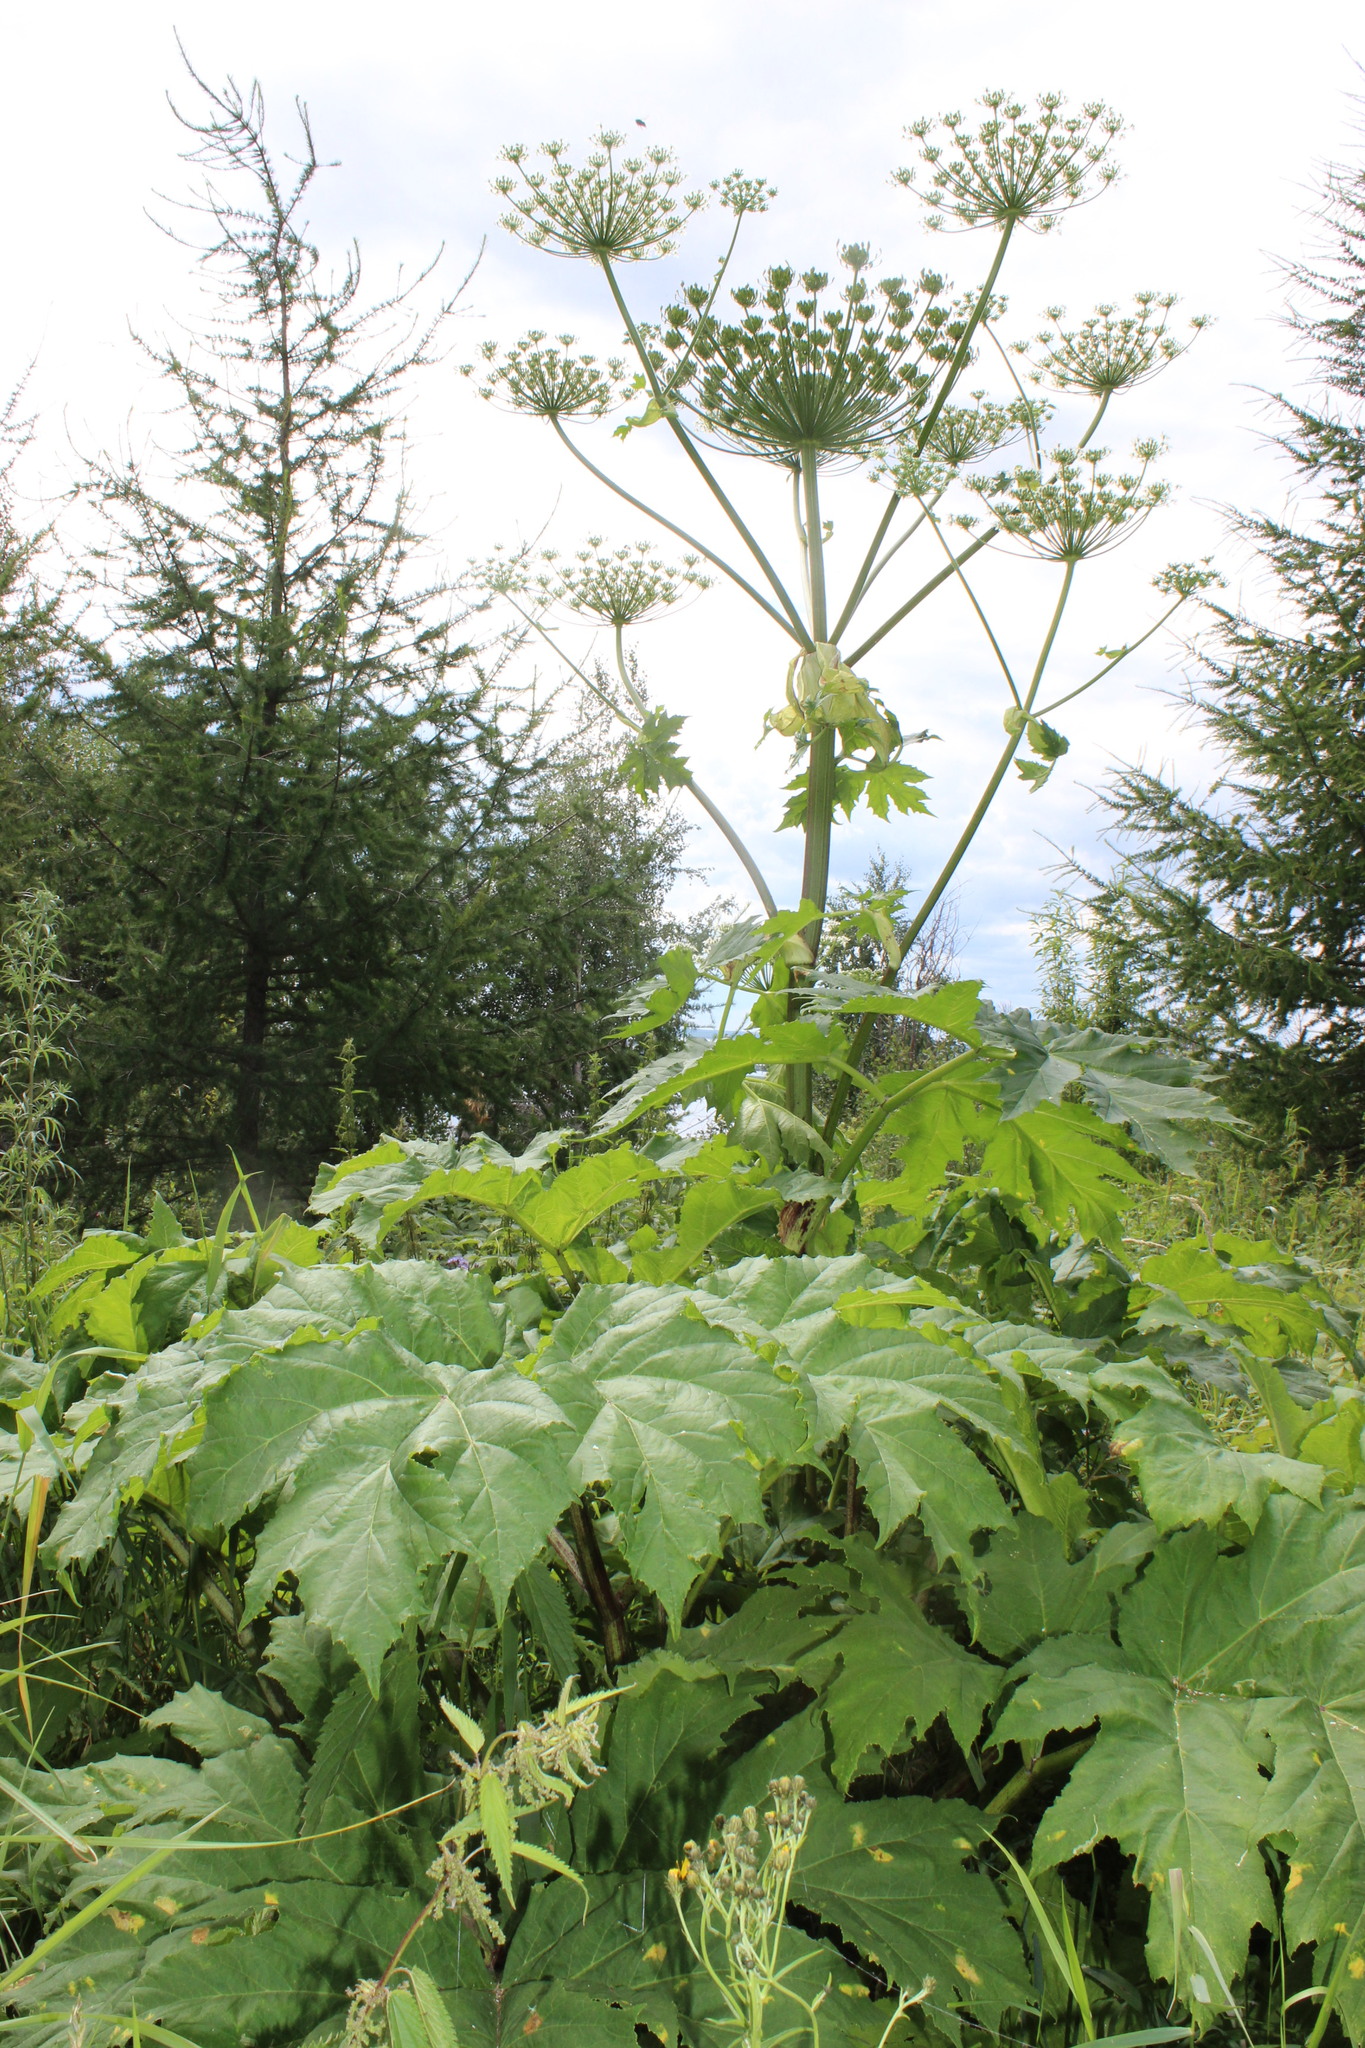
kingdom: Plantae
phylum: Tracheophyta
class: Magnoliopsida
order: Apiales
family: Apiaceae
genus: Heracleum
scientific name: Heracleum sosnowskyi
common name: Sosnowsky's hogweed
